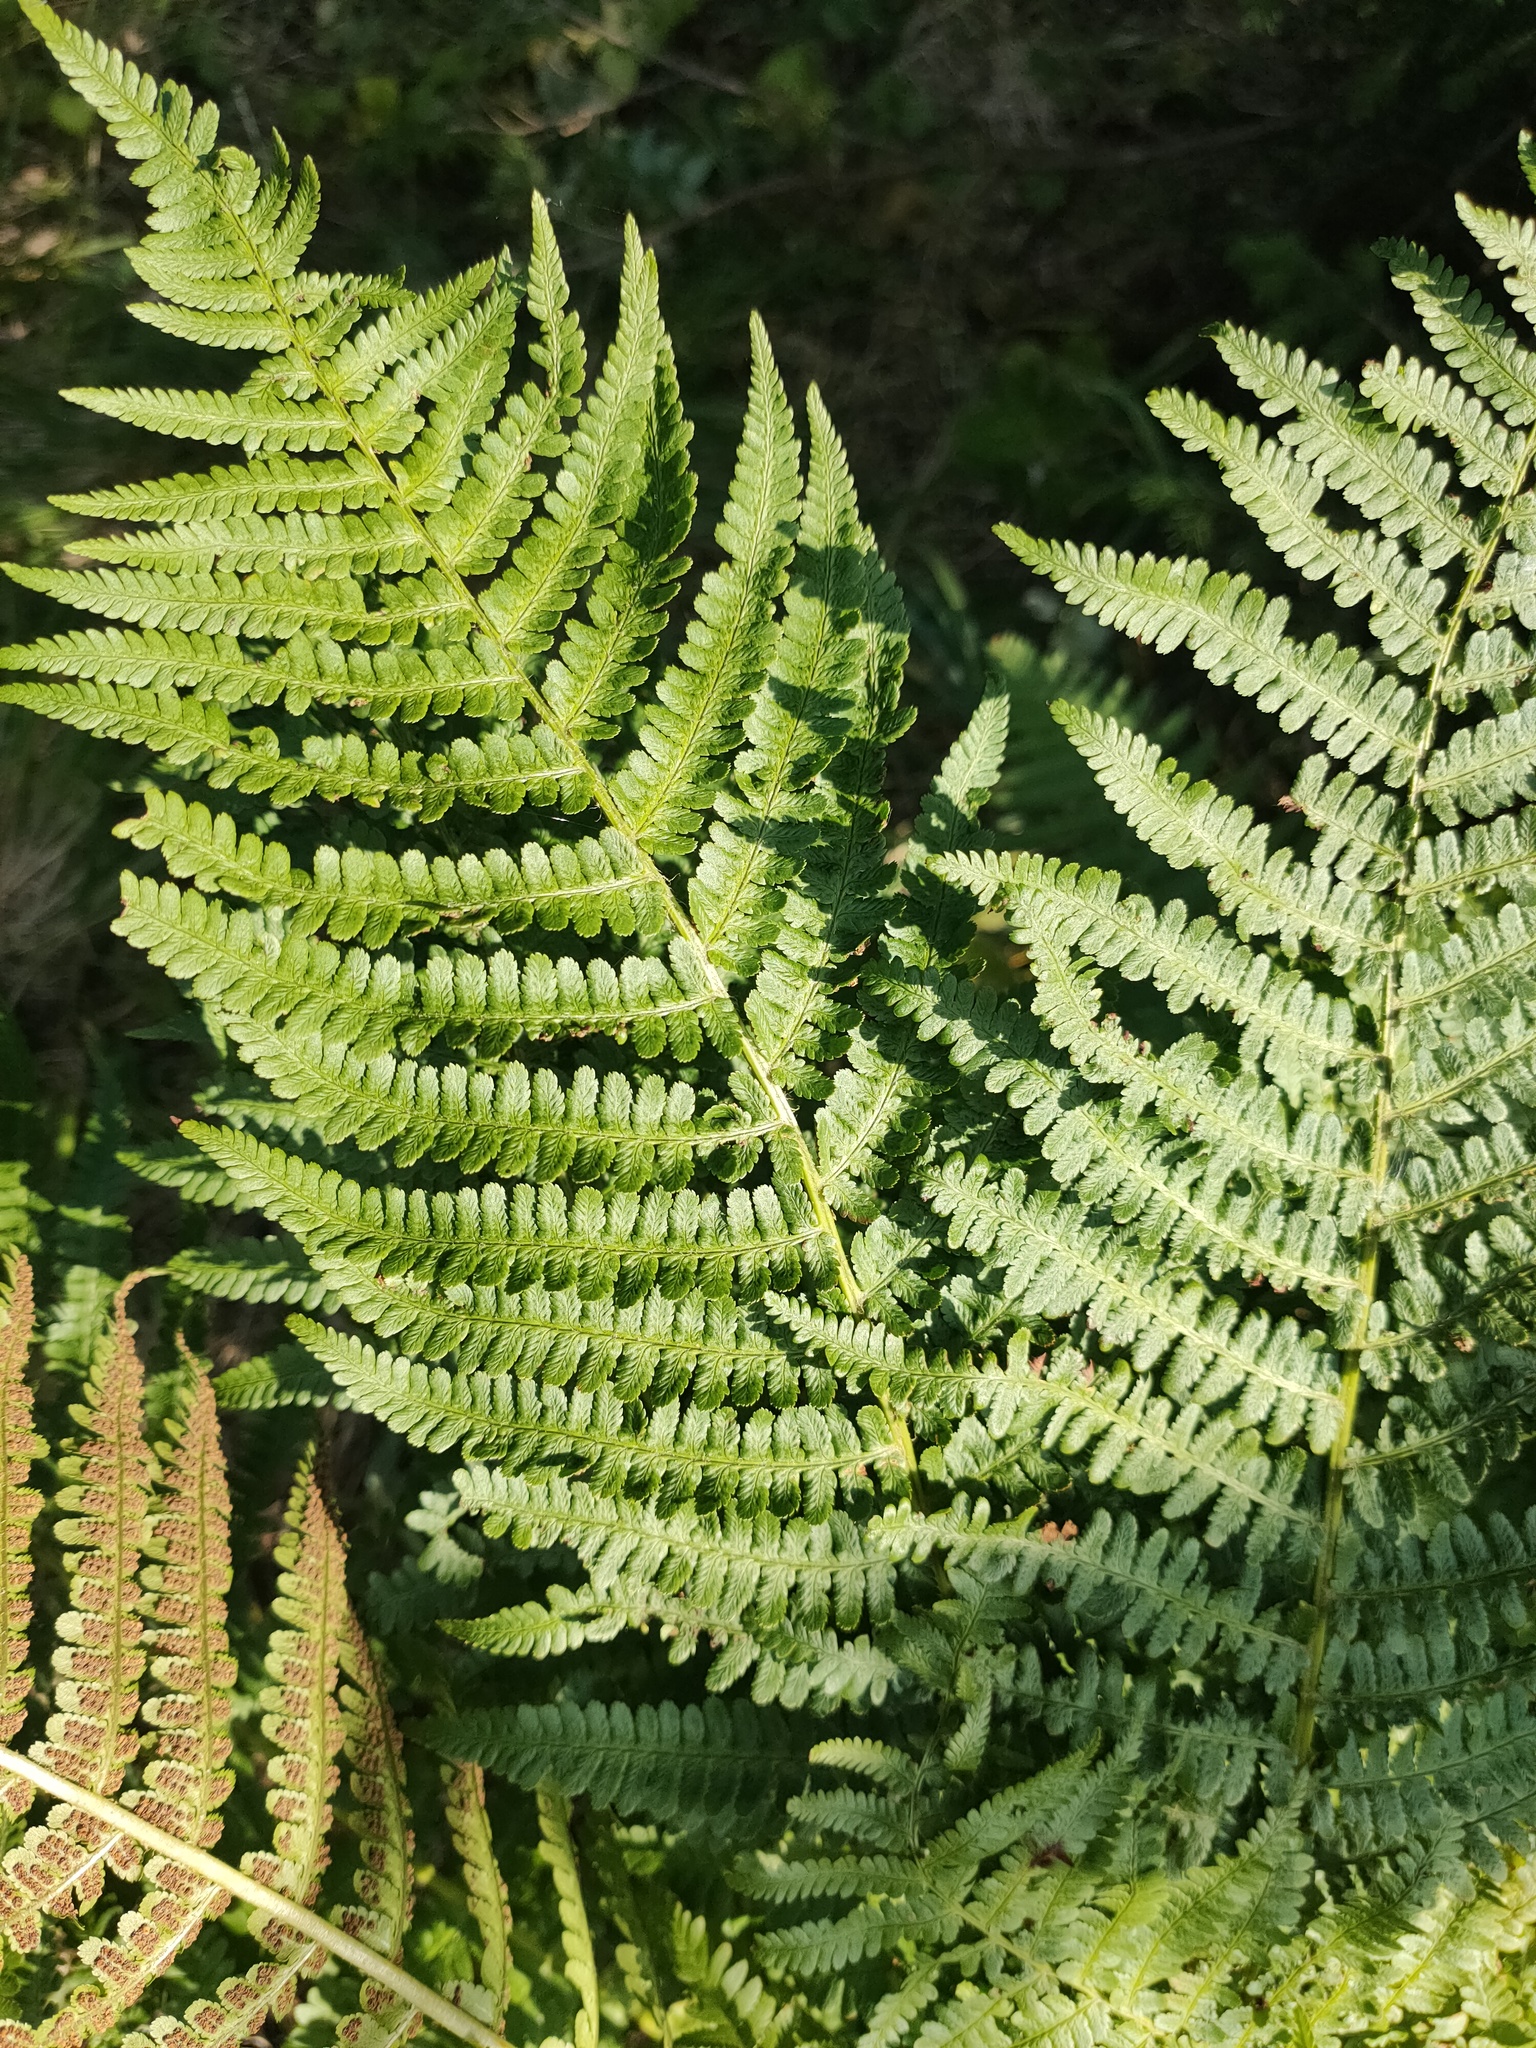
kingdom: Plantae
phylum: Tracheophyta
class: Polypodiopsida
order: Polypodiales
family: Dryopteridaceae
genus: Dryopteris
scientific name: Dryopteris filix-mas
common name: Male fern
